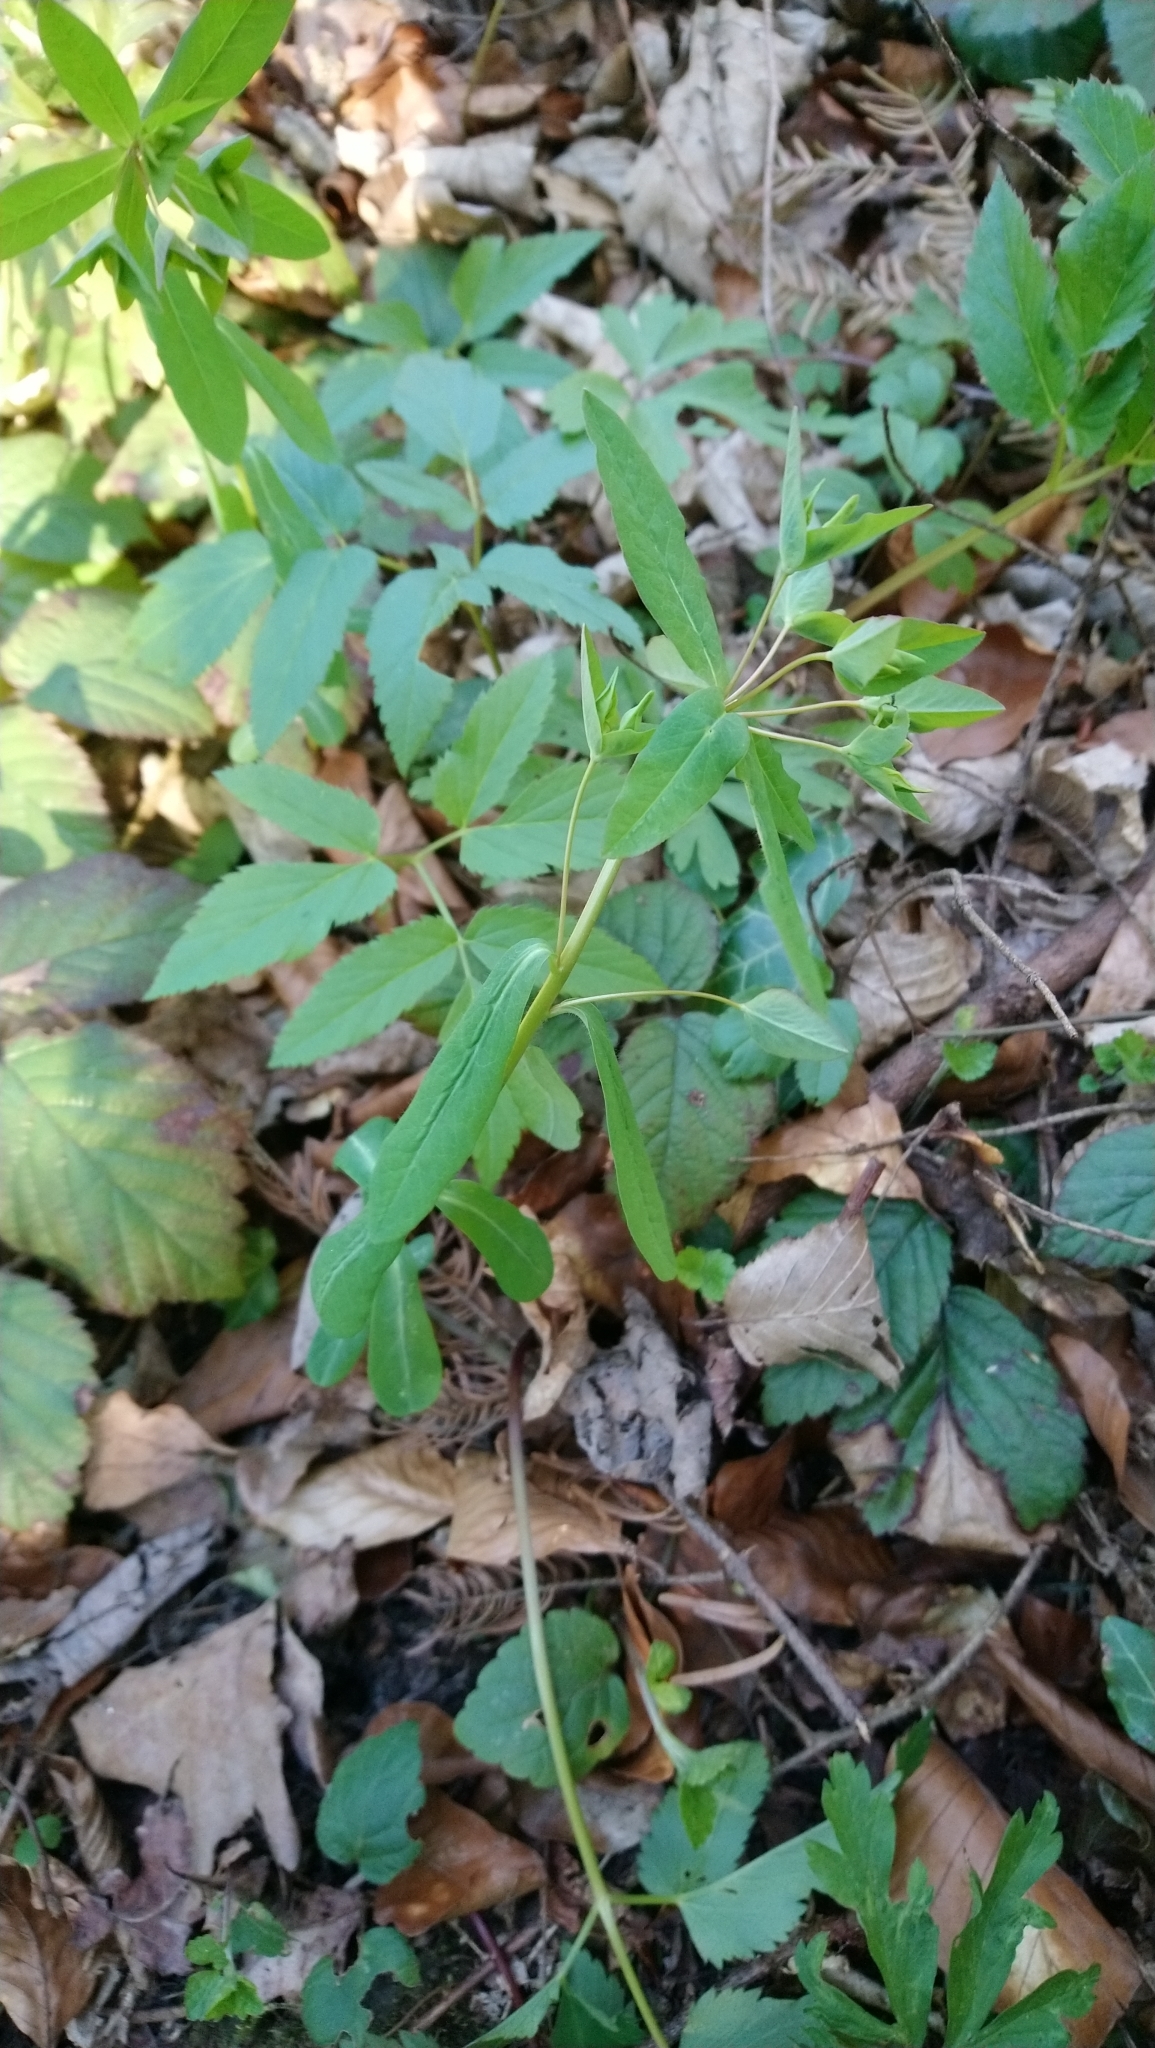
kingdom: Plantae
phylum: Tracheophyta
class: Magnoliopsida
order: Malpighiales
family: Euphorbiaceae
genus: Euphorbia
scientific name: Euphorbia dulcis
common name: Sweet spurge
